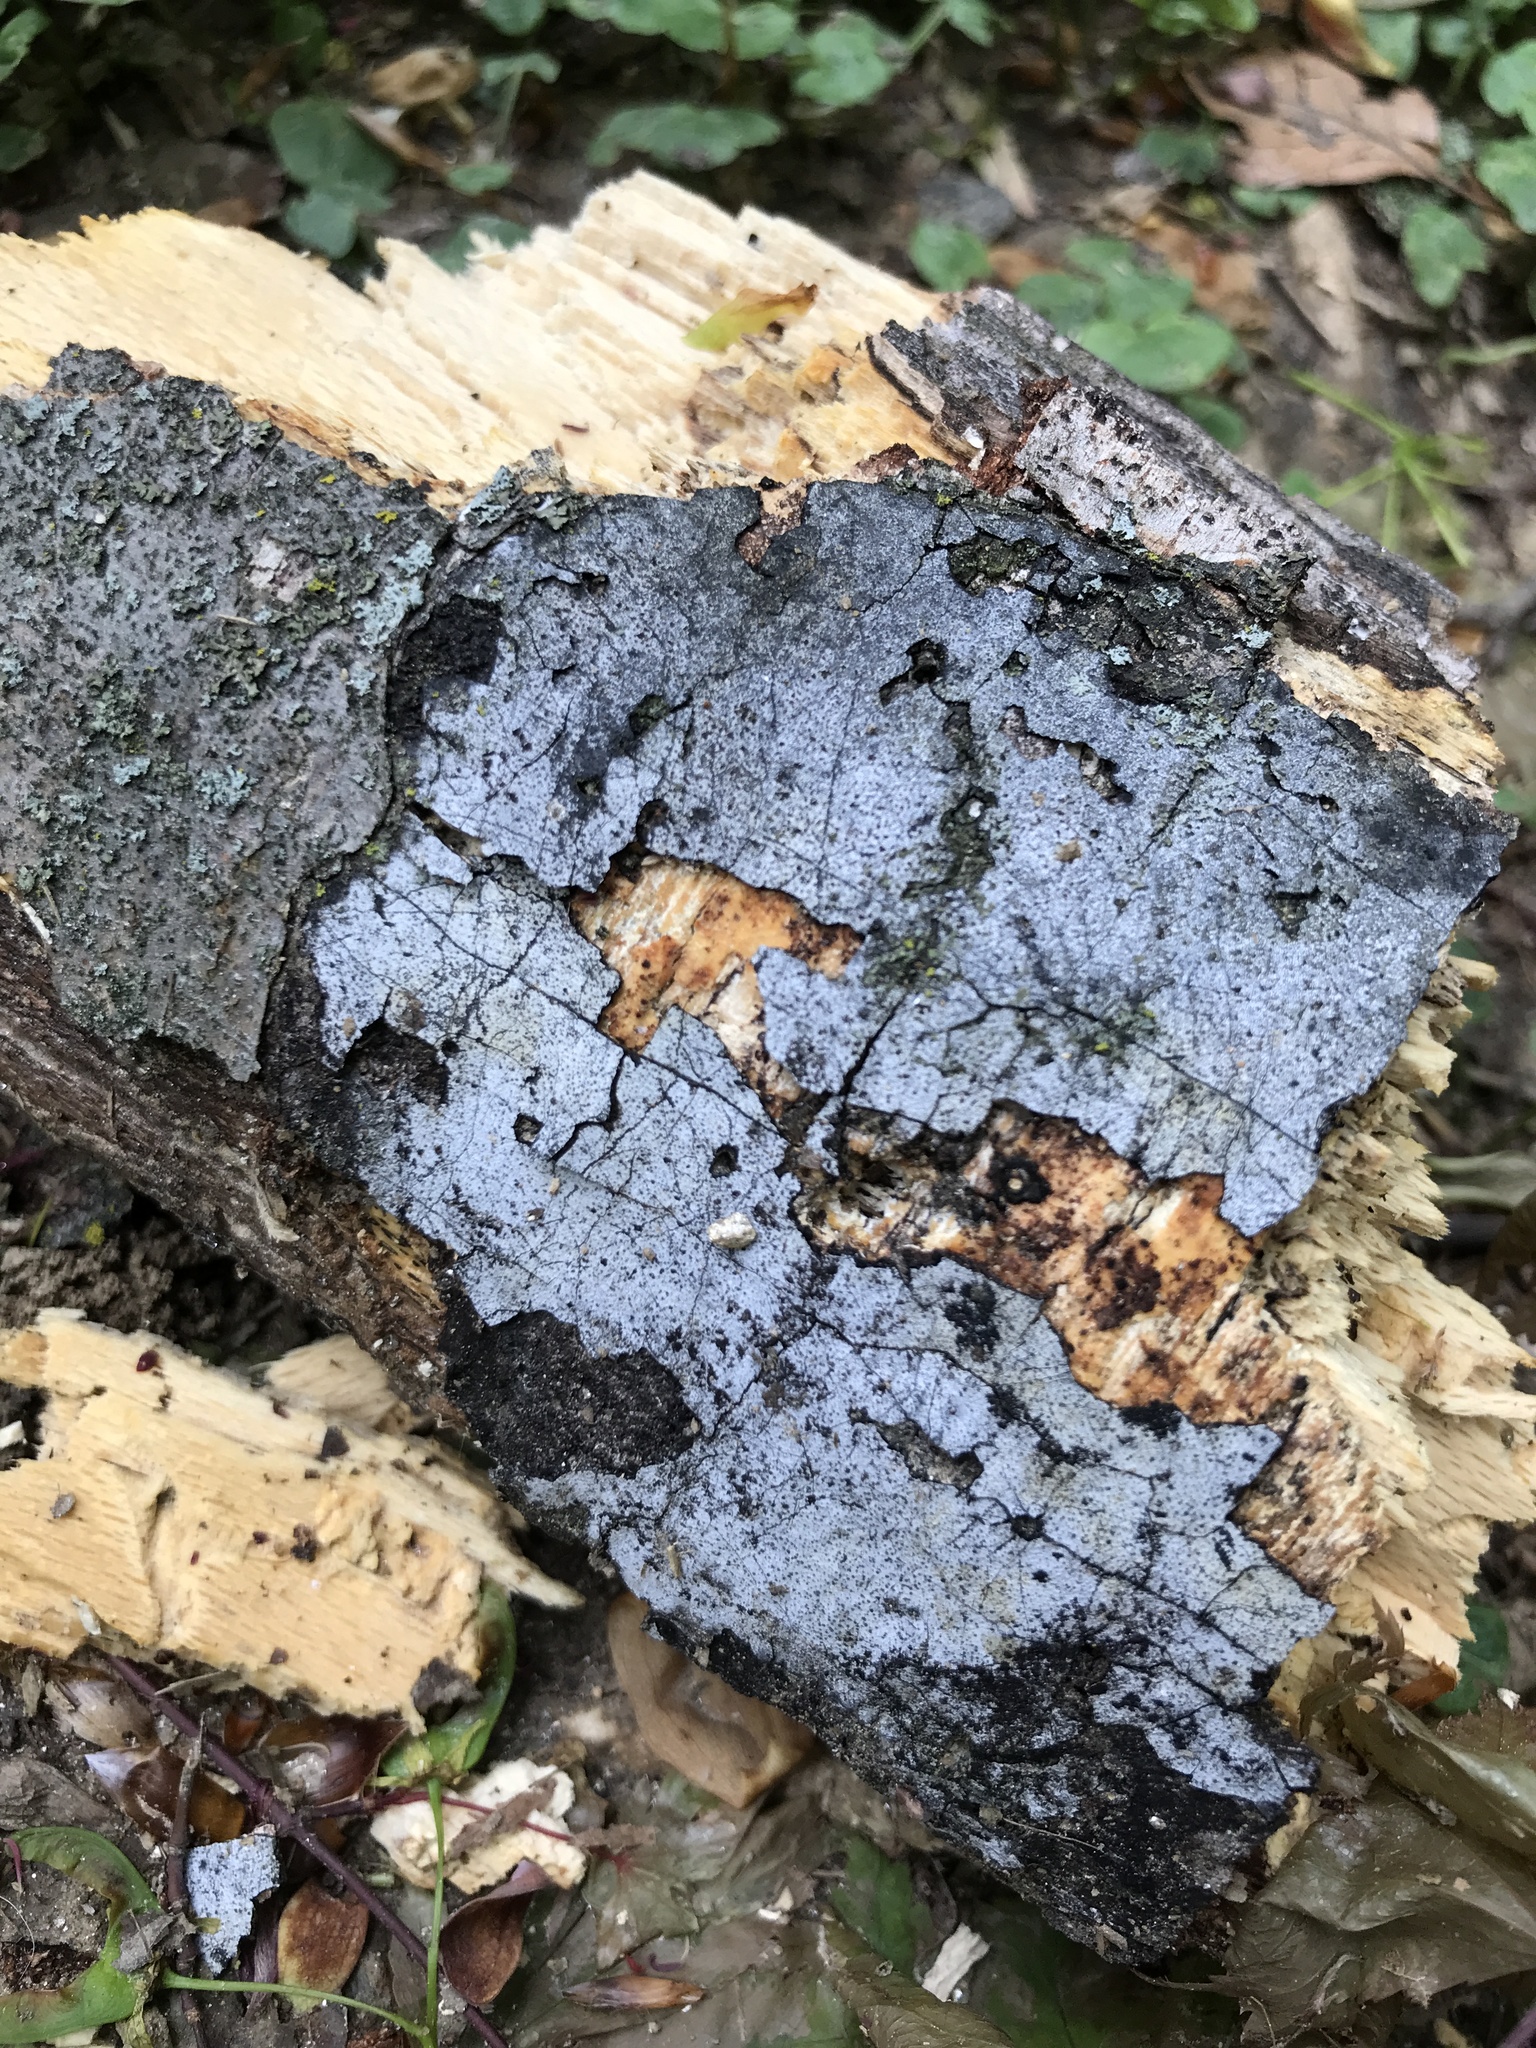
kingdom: Fungi
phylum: Ascomycota
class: Sordariomycetes
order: Xylariales
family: Graphostromataceae
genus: Biscogniauxia
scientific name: Biscogniauxia atropunctata
